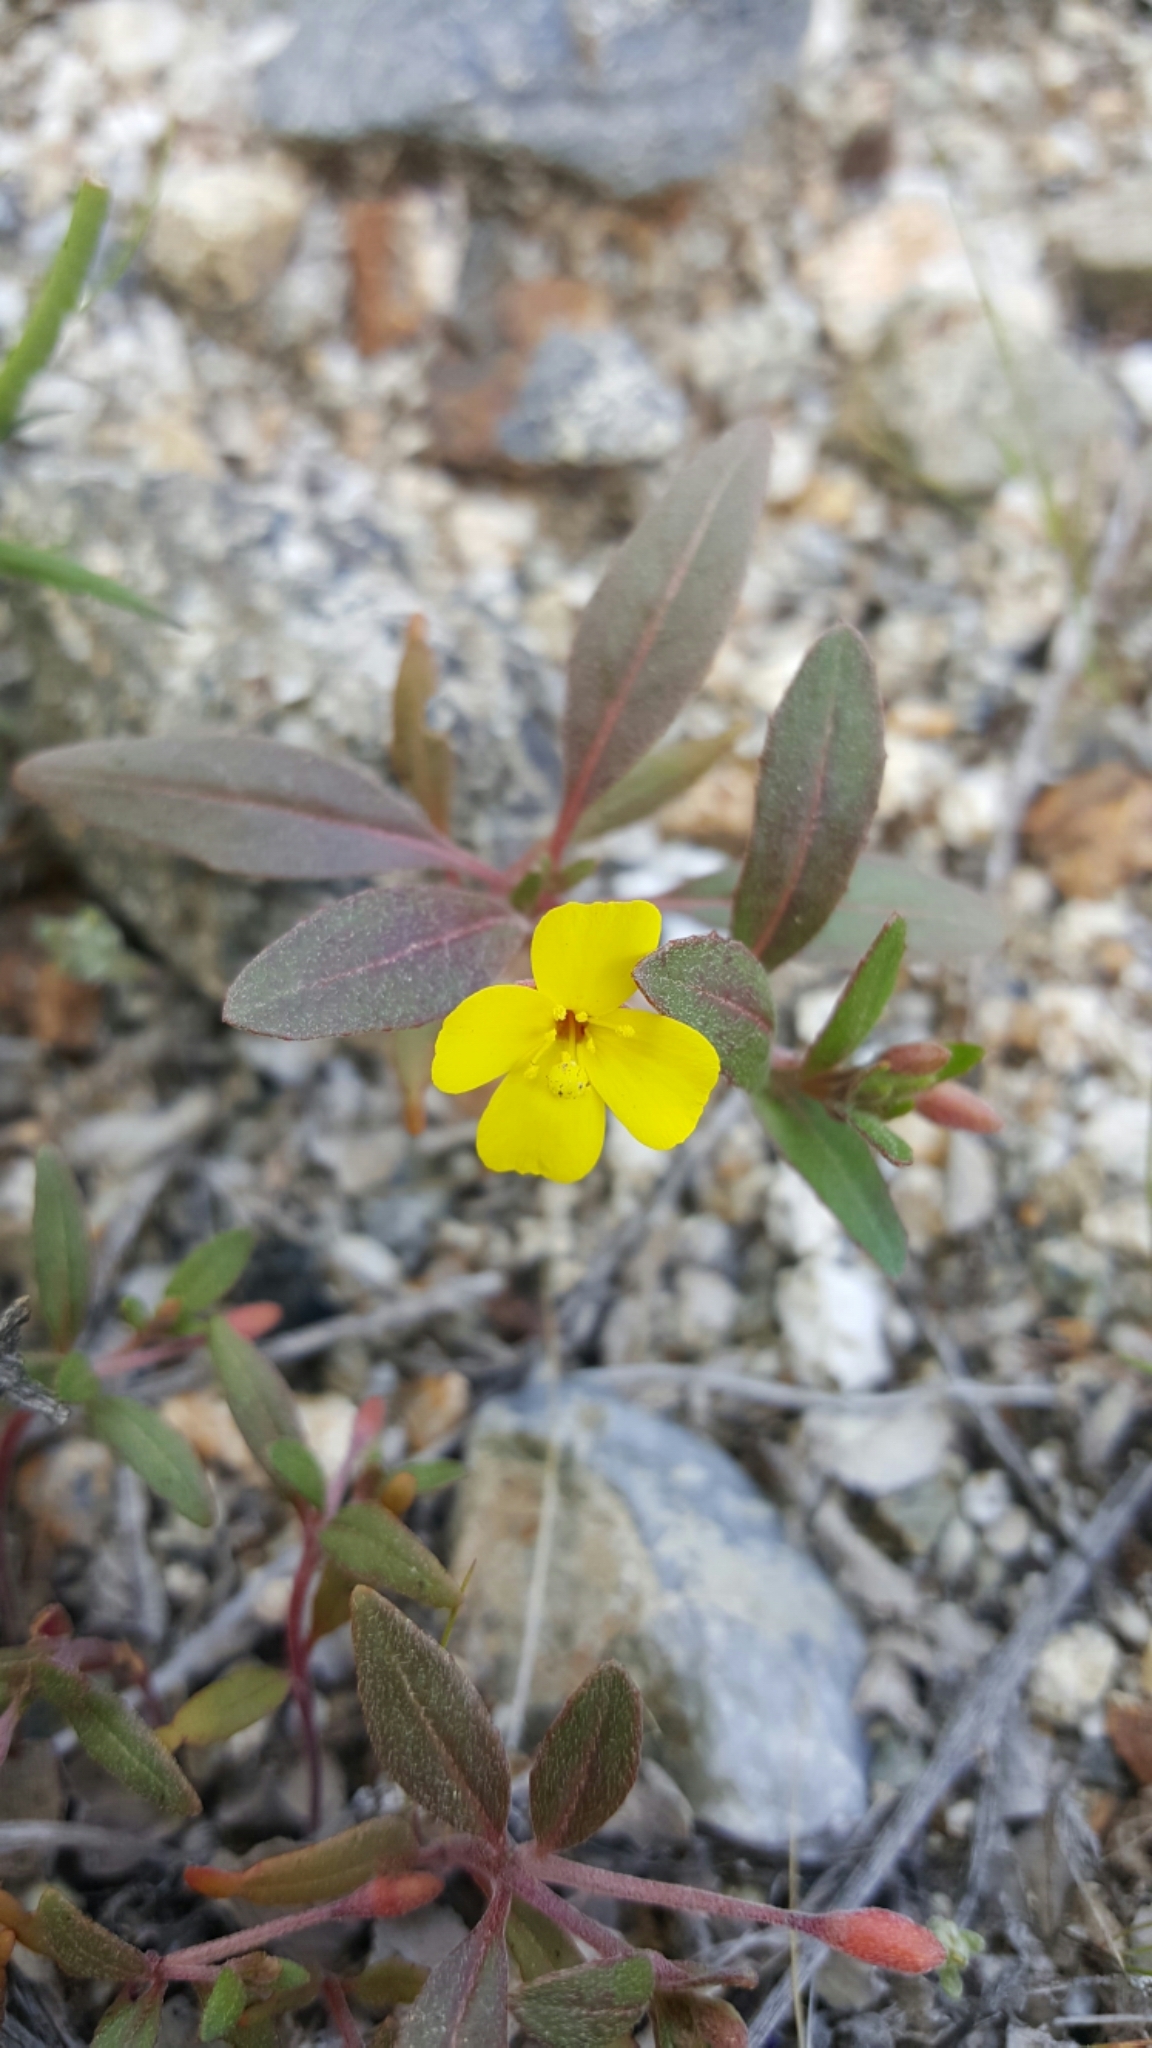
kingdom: Plantae
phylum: Tracheophyta
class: Magnoliopsida
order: Myrtales
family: Onagraceae
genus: Camissoniopsis
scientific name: Camissoniopsis pallida
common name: Paleyellow suncup
